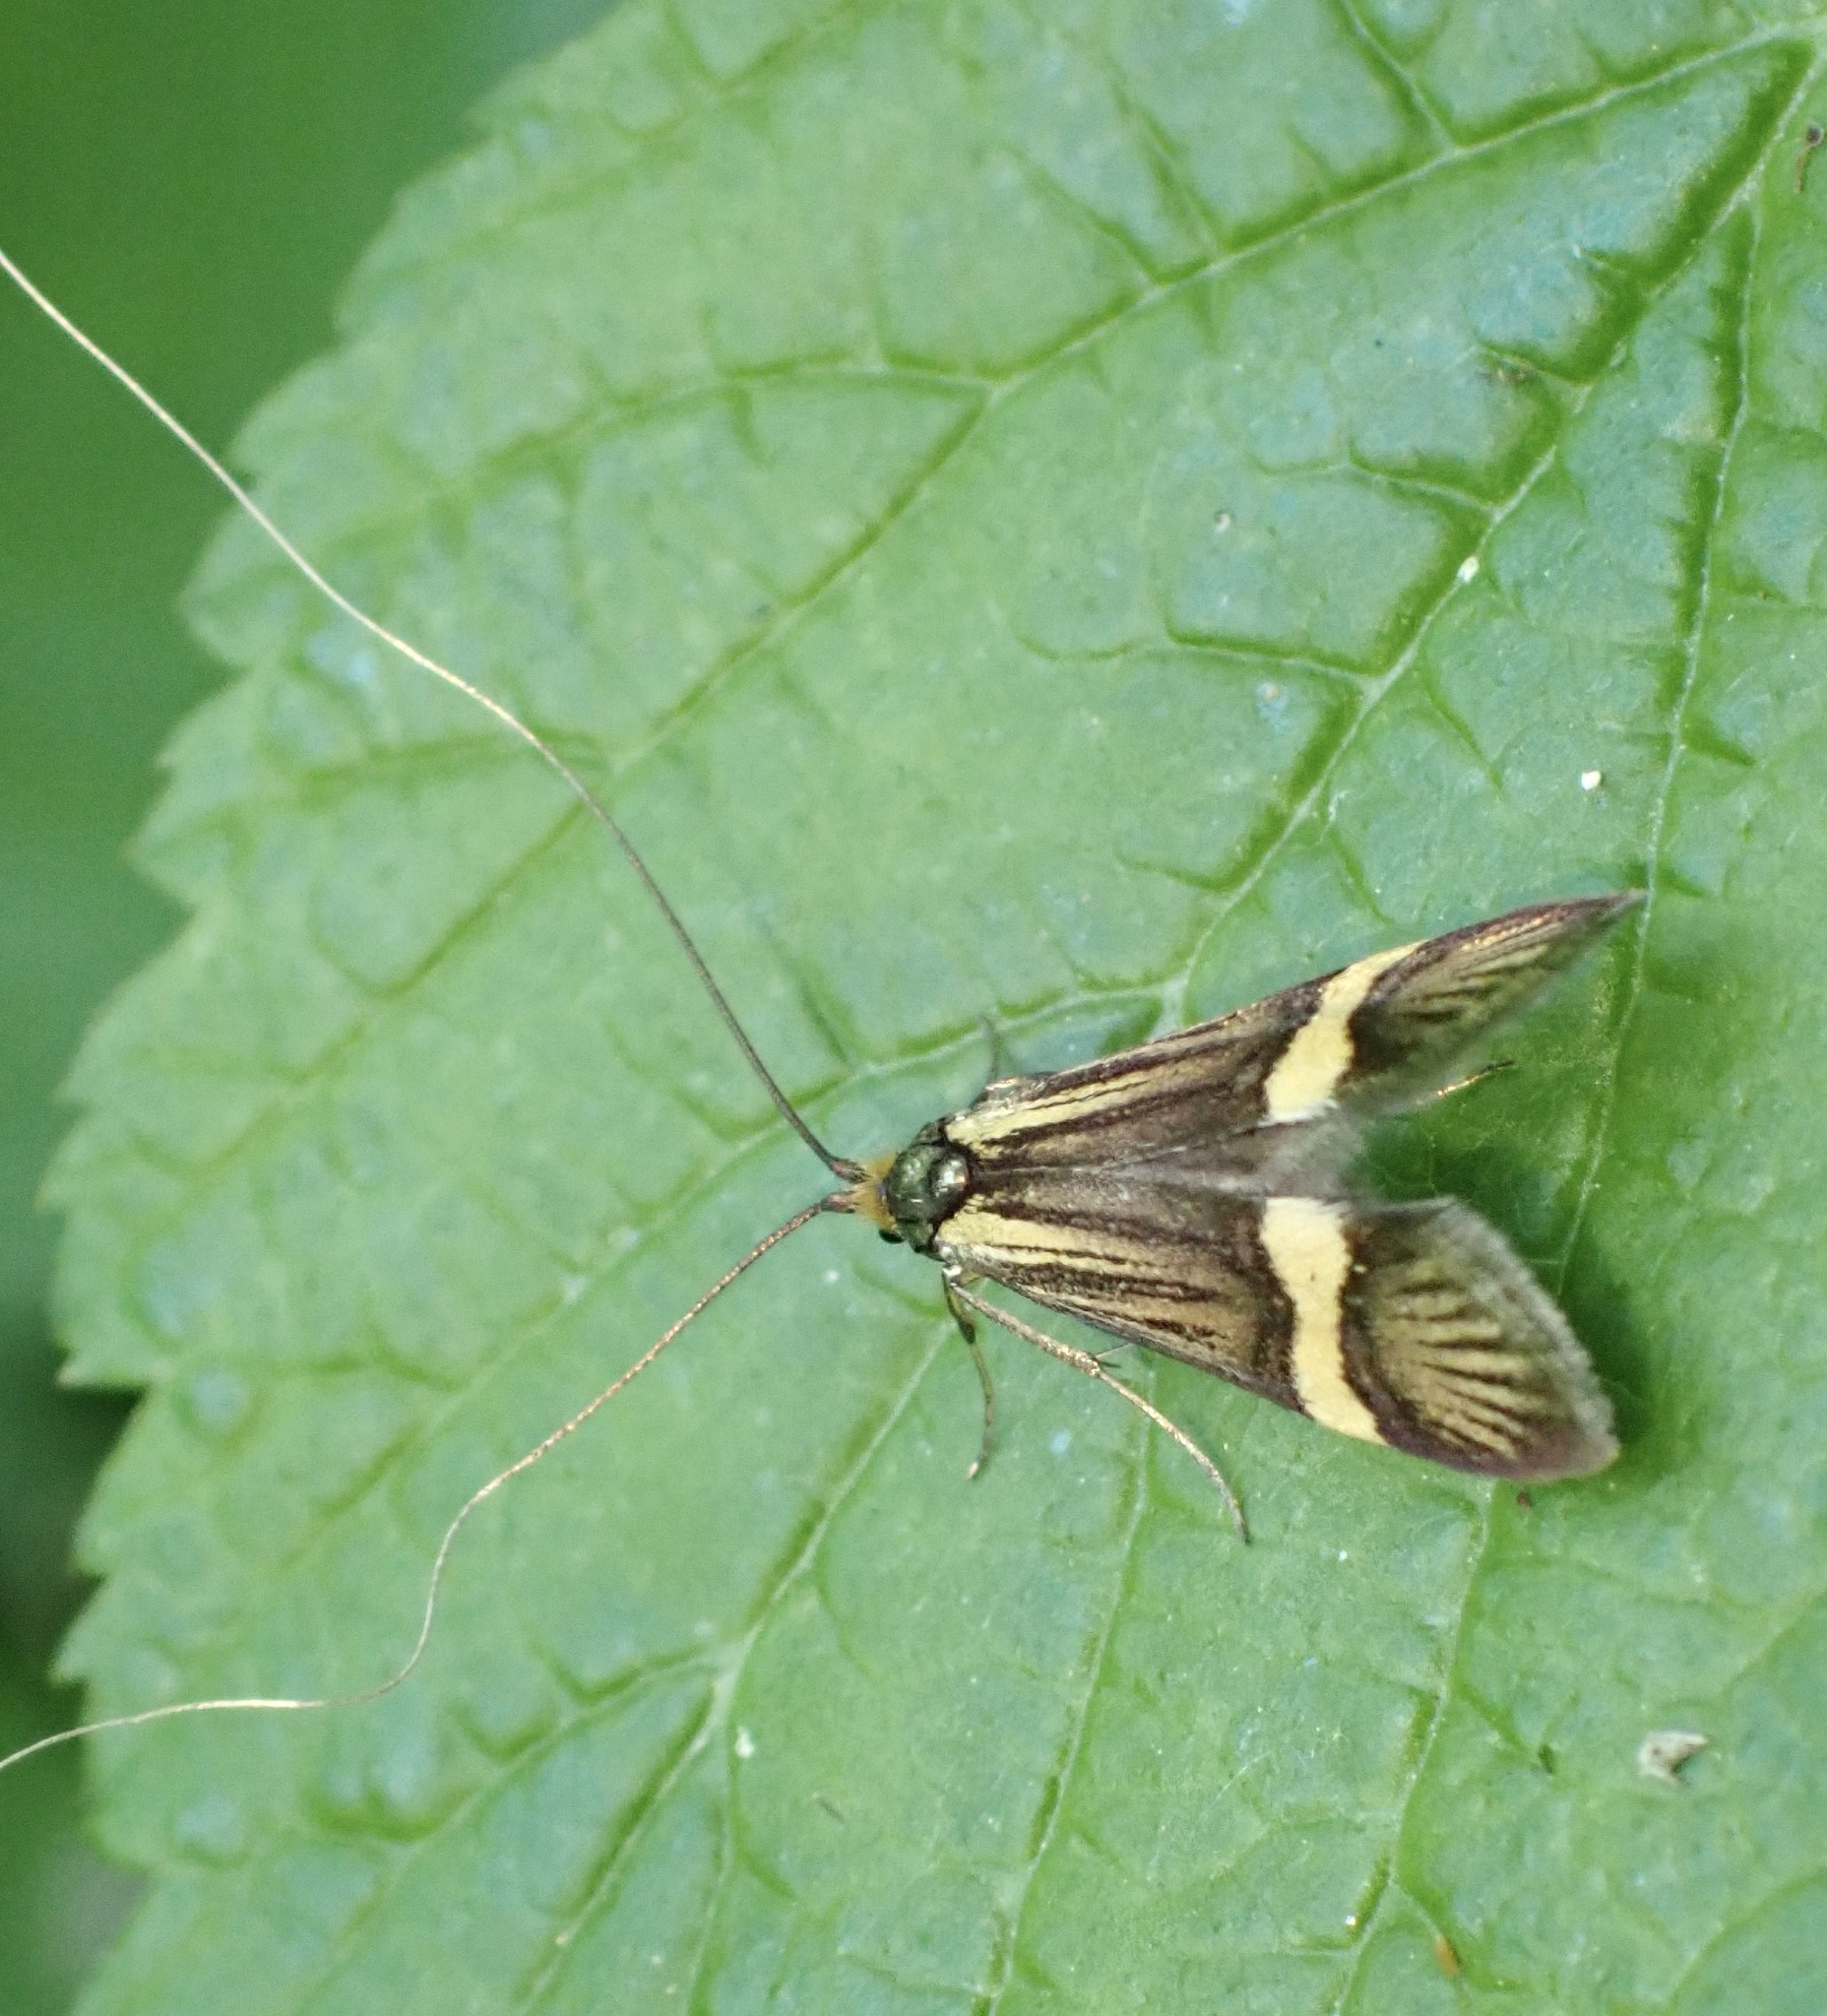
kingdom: Animalia
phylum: Arthropoda
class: Insecta
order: Lepidoptera
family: Adelidae
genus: Nemophora
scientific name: Nemophora degeerella
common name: Yellow-barred long-horn
